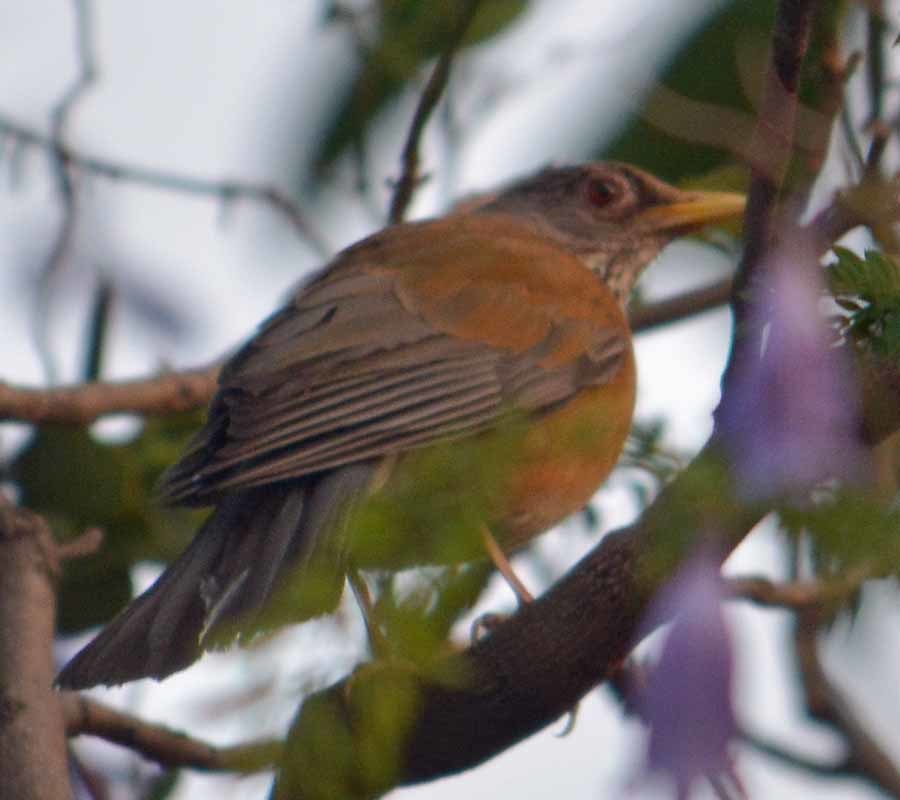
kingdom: Animalia
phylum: Chordata
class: Aves
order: Passeriformes
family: Turdidae
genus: Turdus
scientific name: Turdus rufopalliatus
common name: Rufous-backed robin
